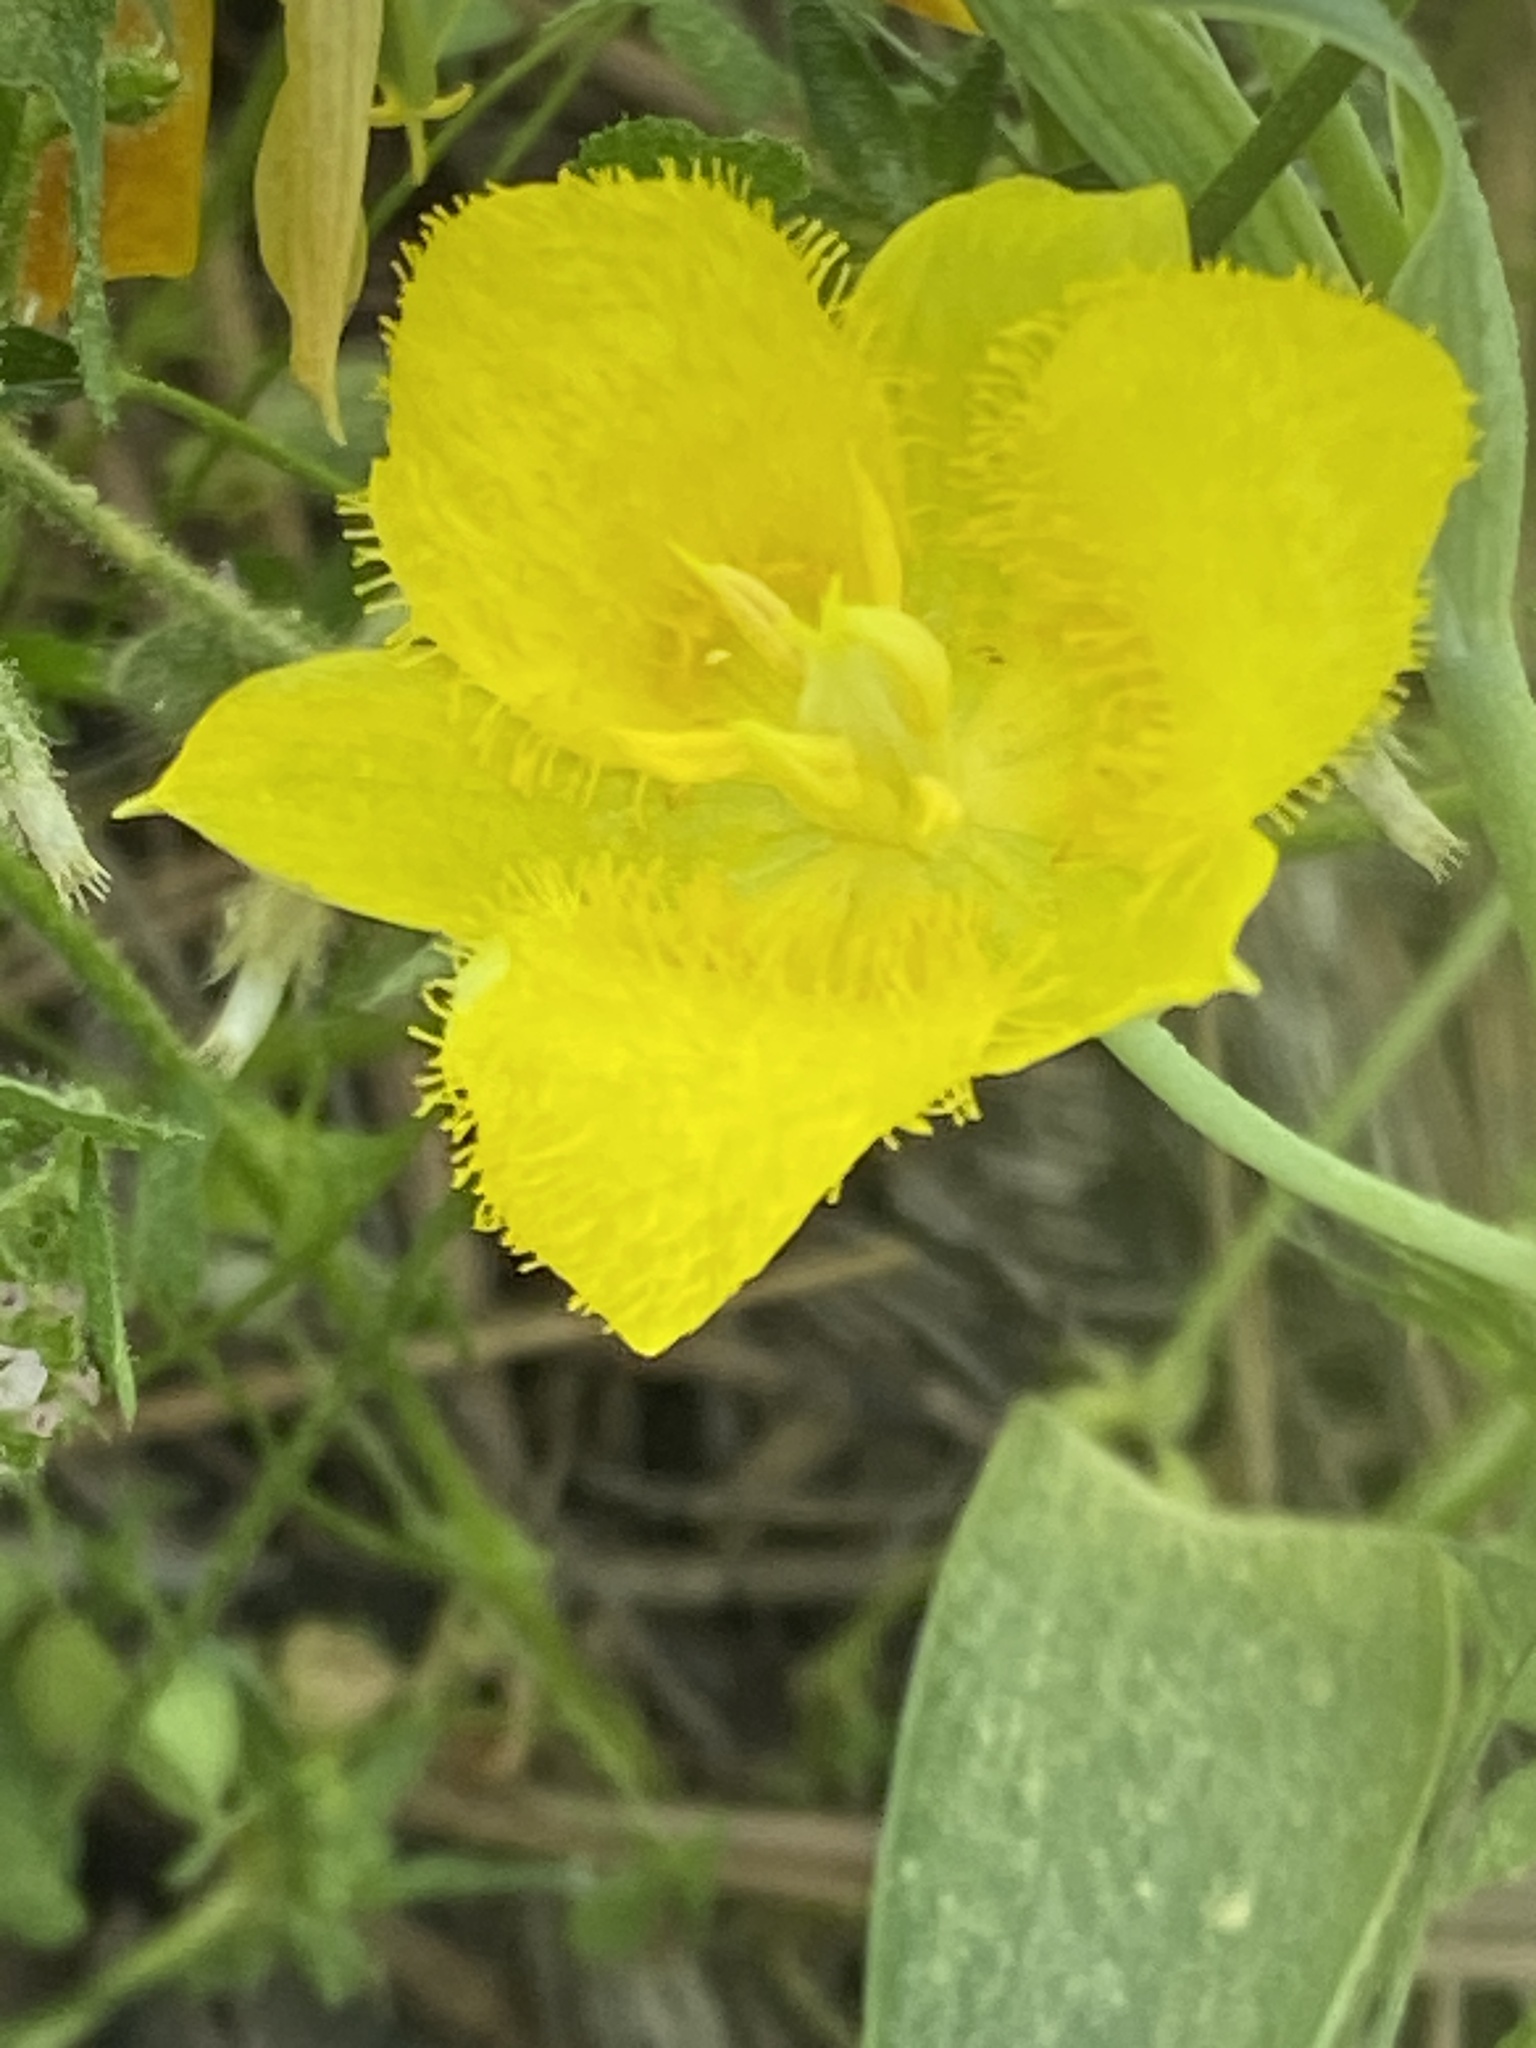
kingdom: Plantae
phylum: Tracheophyta
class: Liliopsida
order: Liliales
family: Liliaceae
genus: Calochortus
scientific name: Calochortus monophyllus
